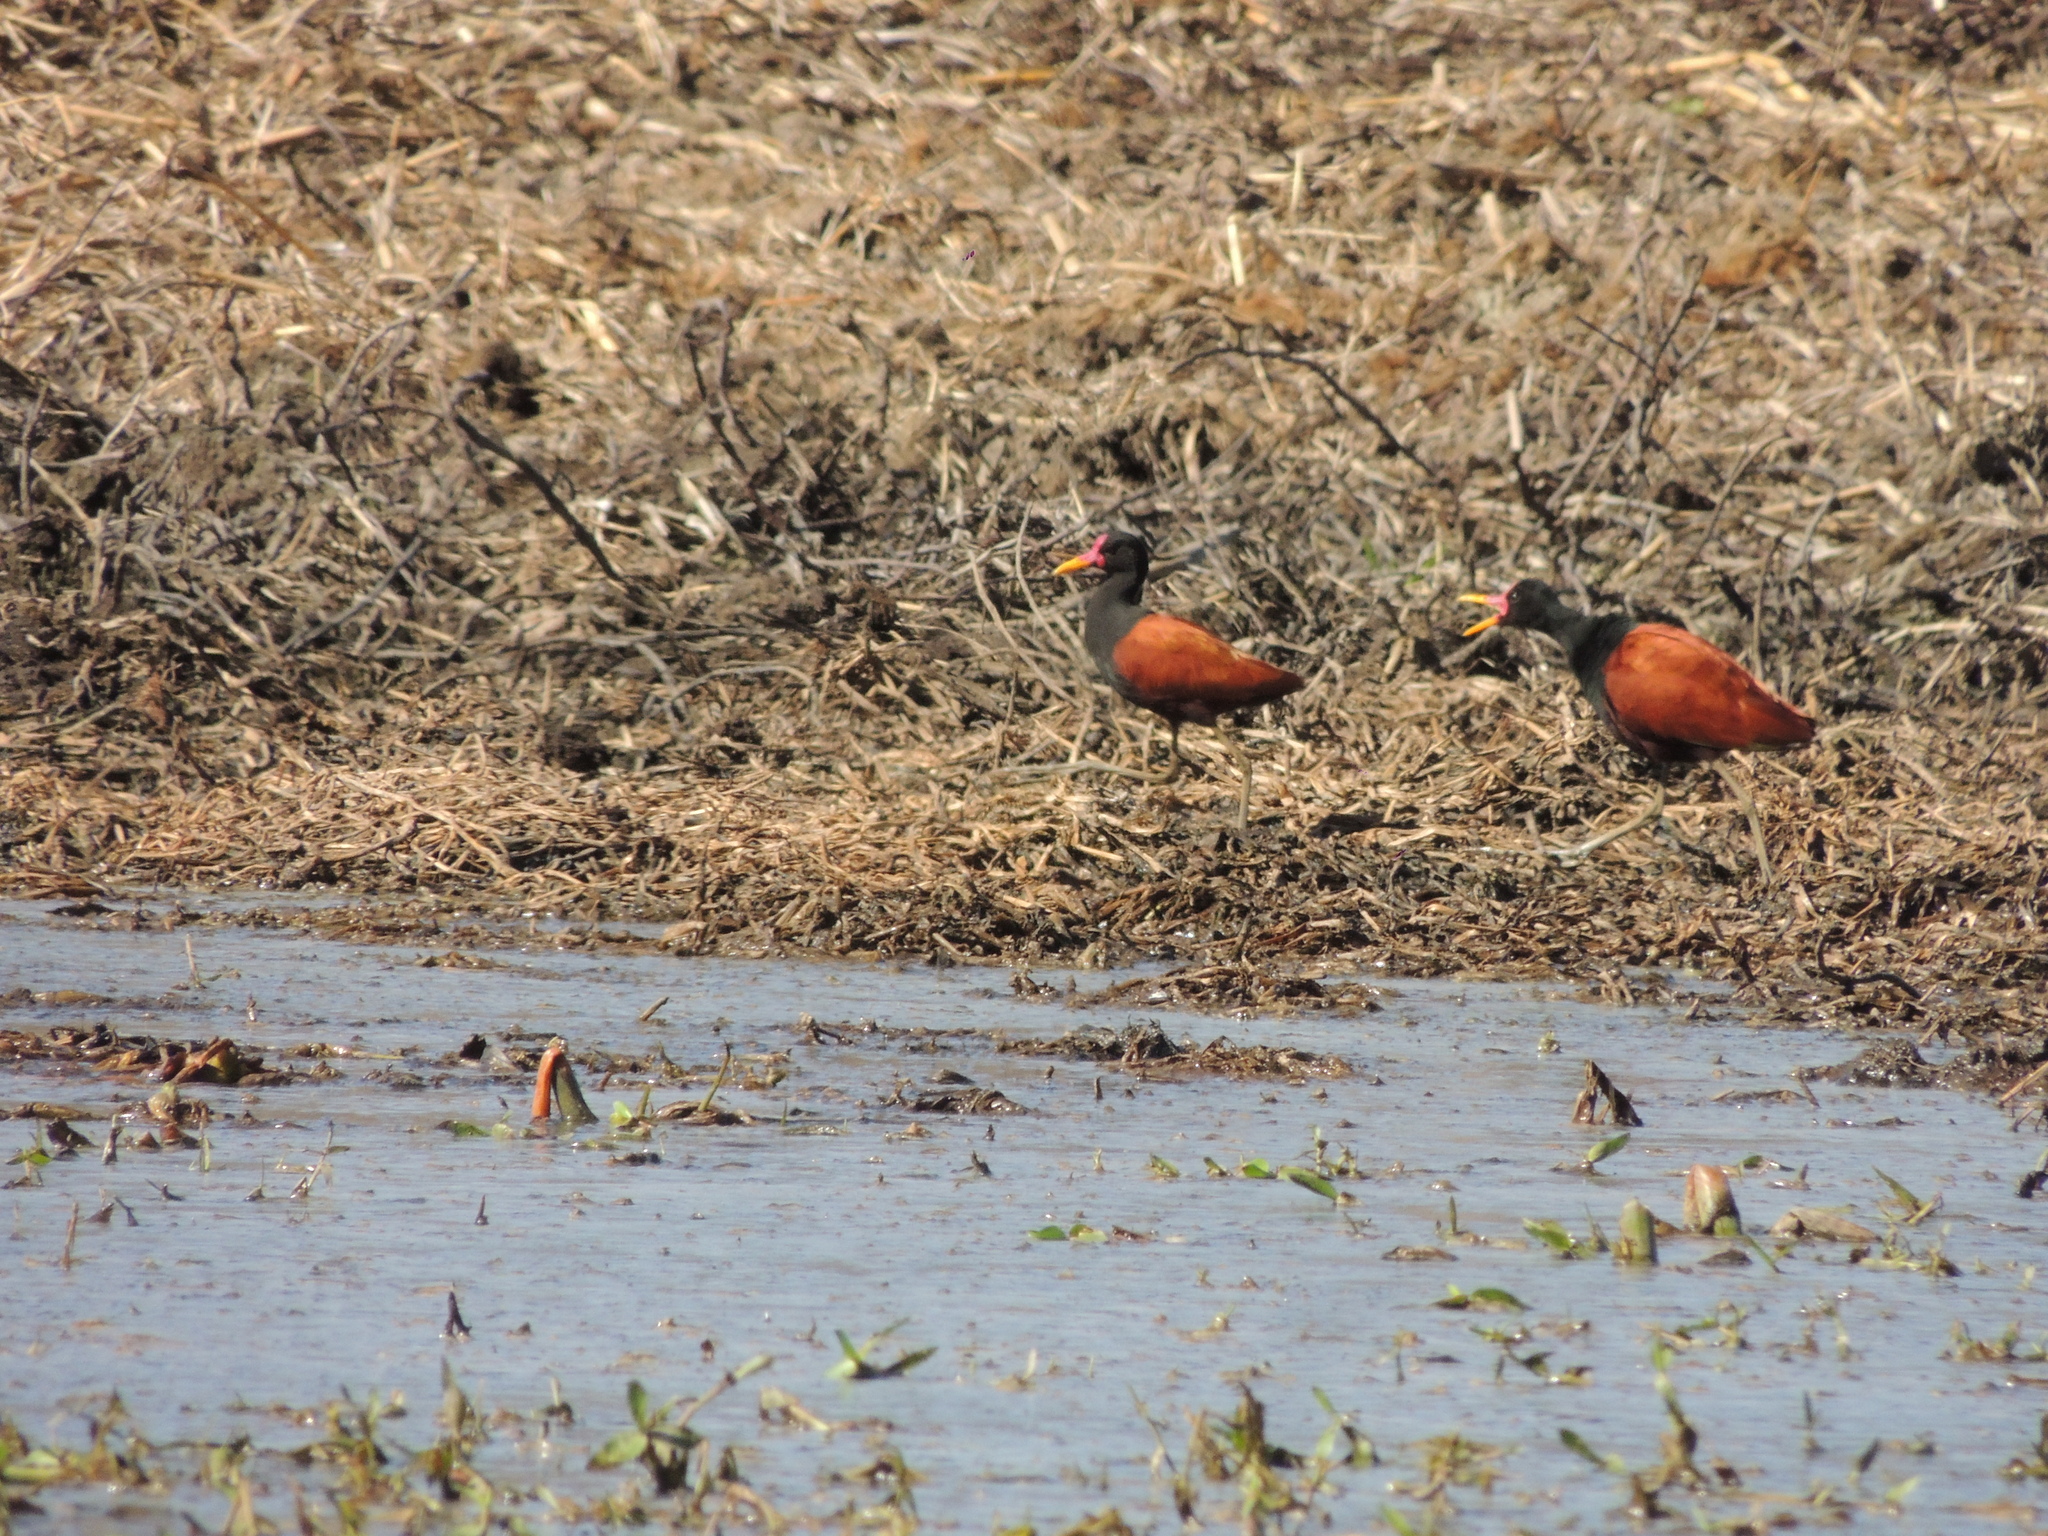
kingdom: Animalia
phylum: Chordata
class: Aves
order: Charadriiformes
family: Jacanidae
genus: Jacana
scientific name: Jacana jacana
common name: Wattled jacana
